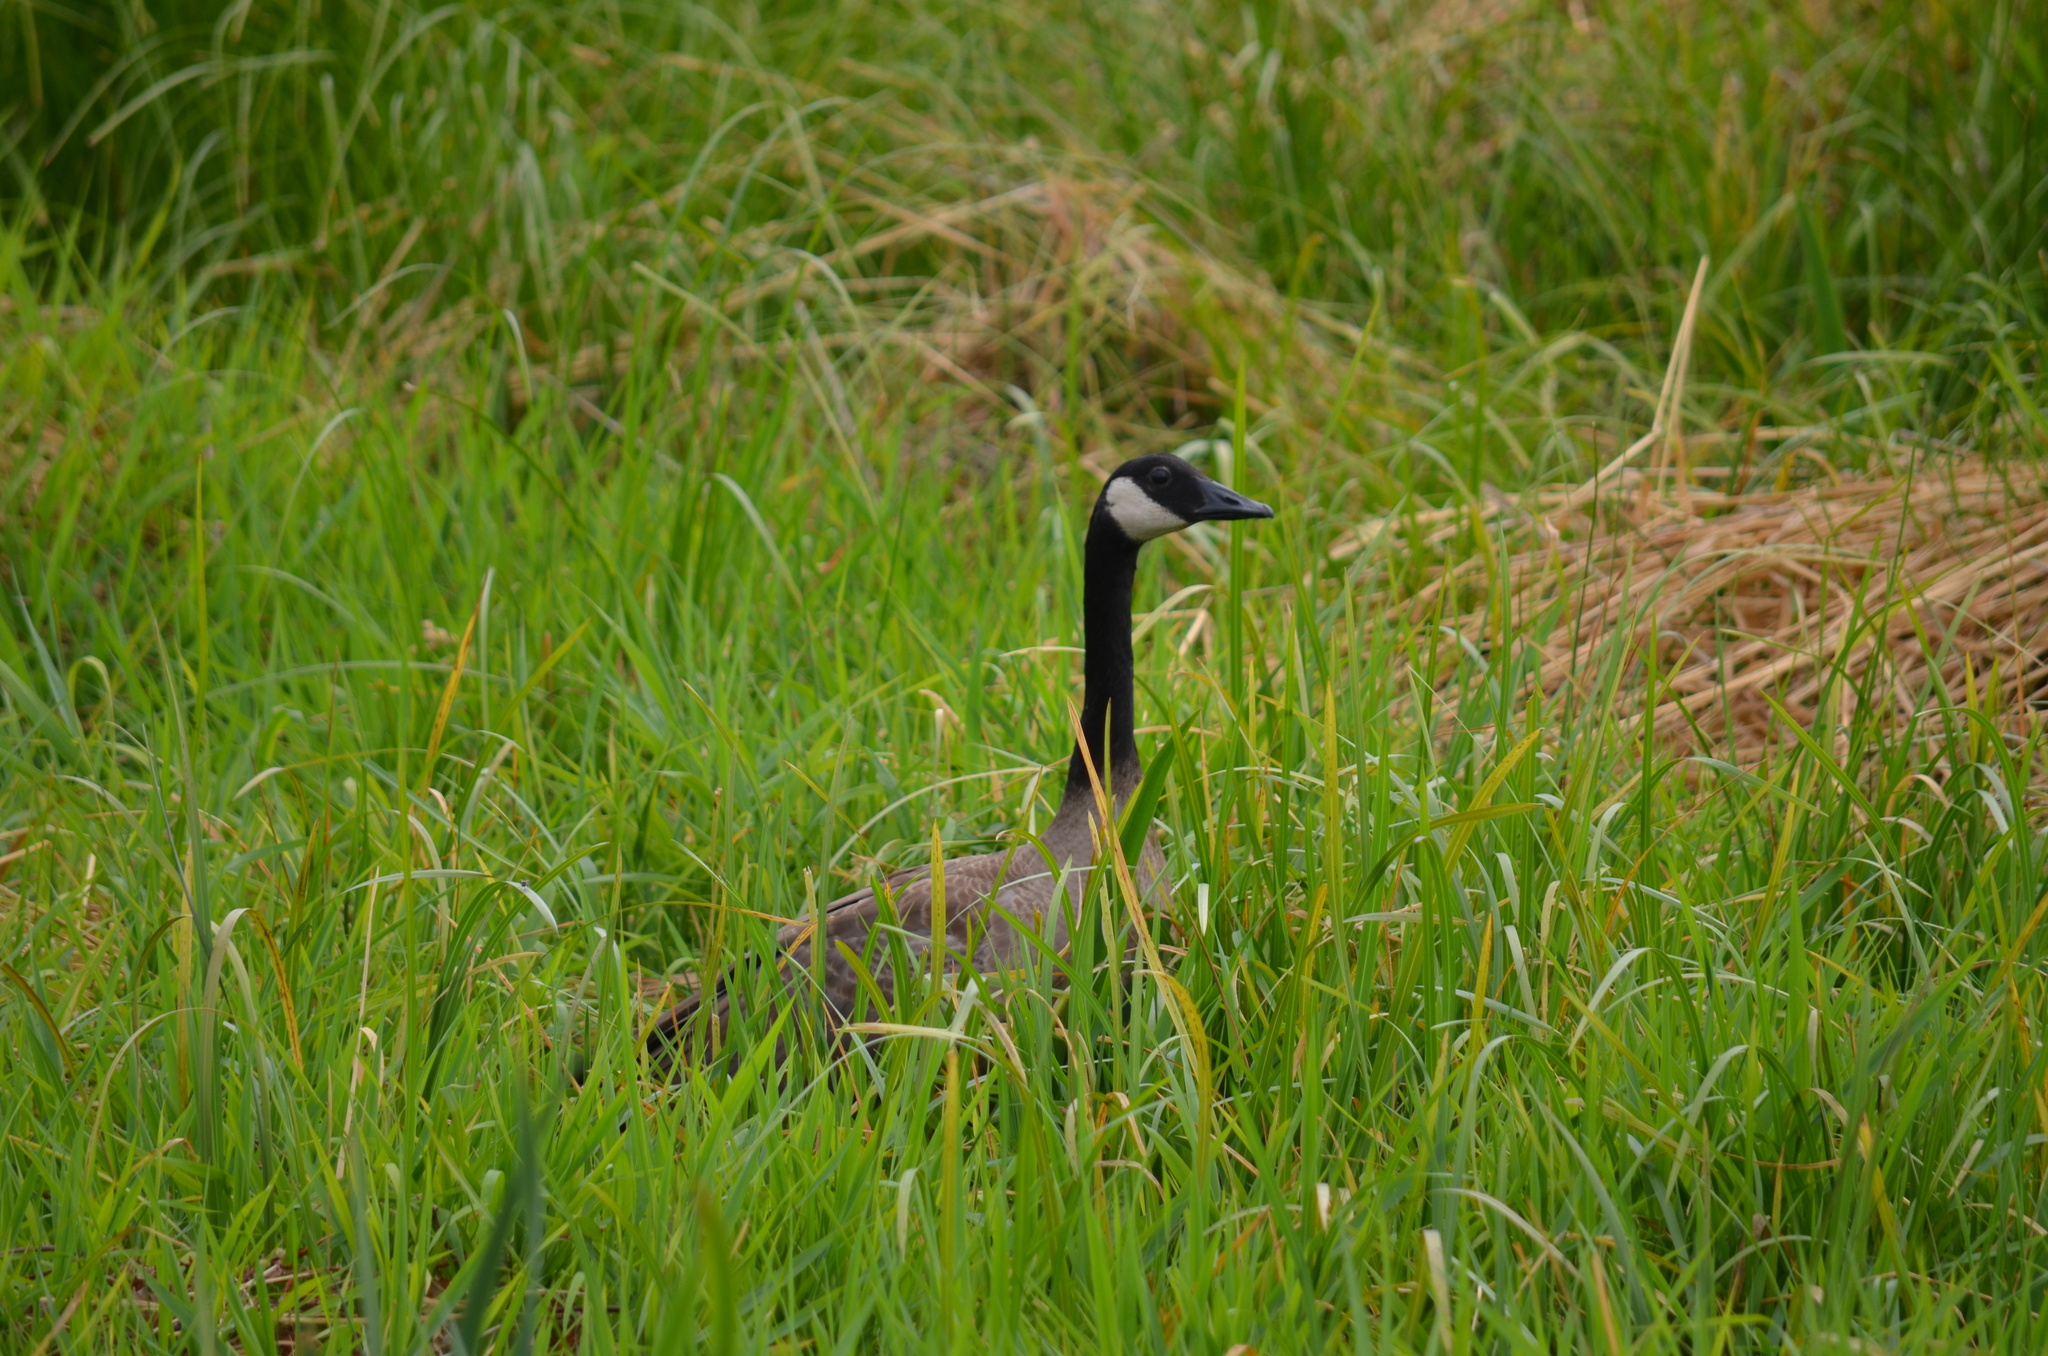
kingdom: Animalia
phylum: Chordata
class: Aves
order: Anseriformes
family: Anatidae
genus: Branta
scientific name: Branta canadensis
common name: Canada goose
